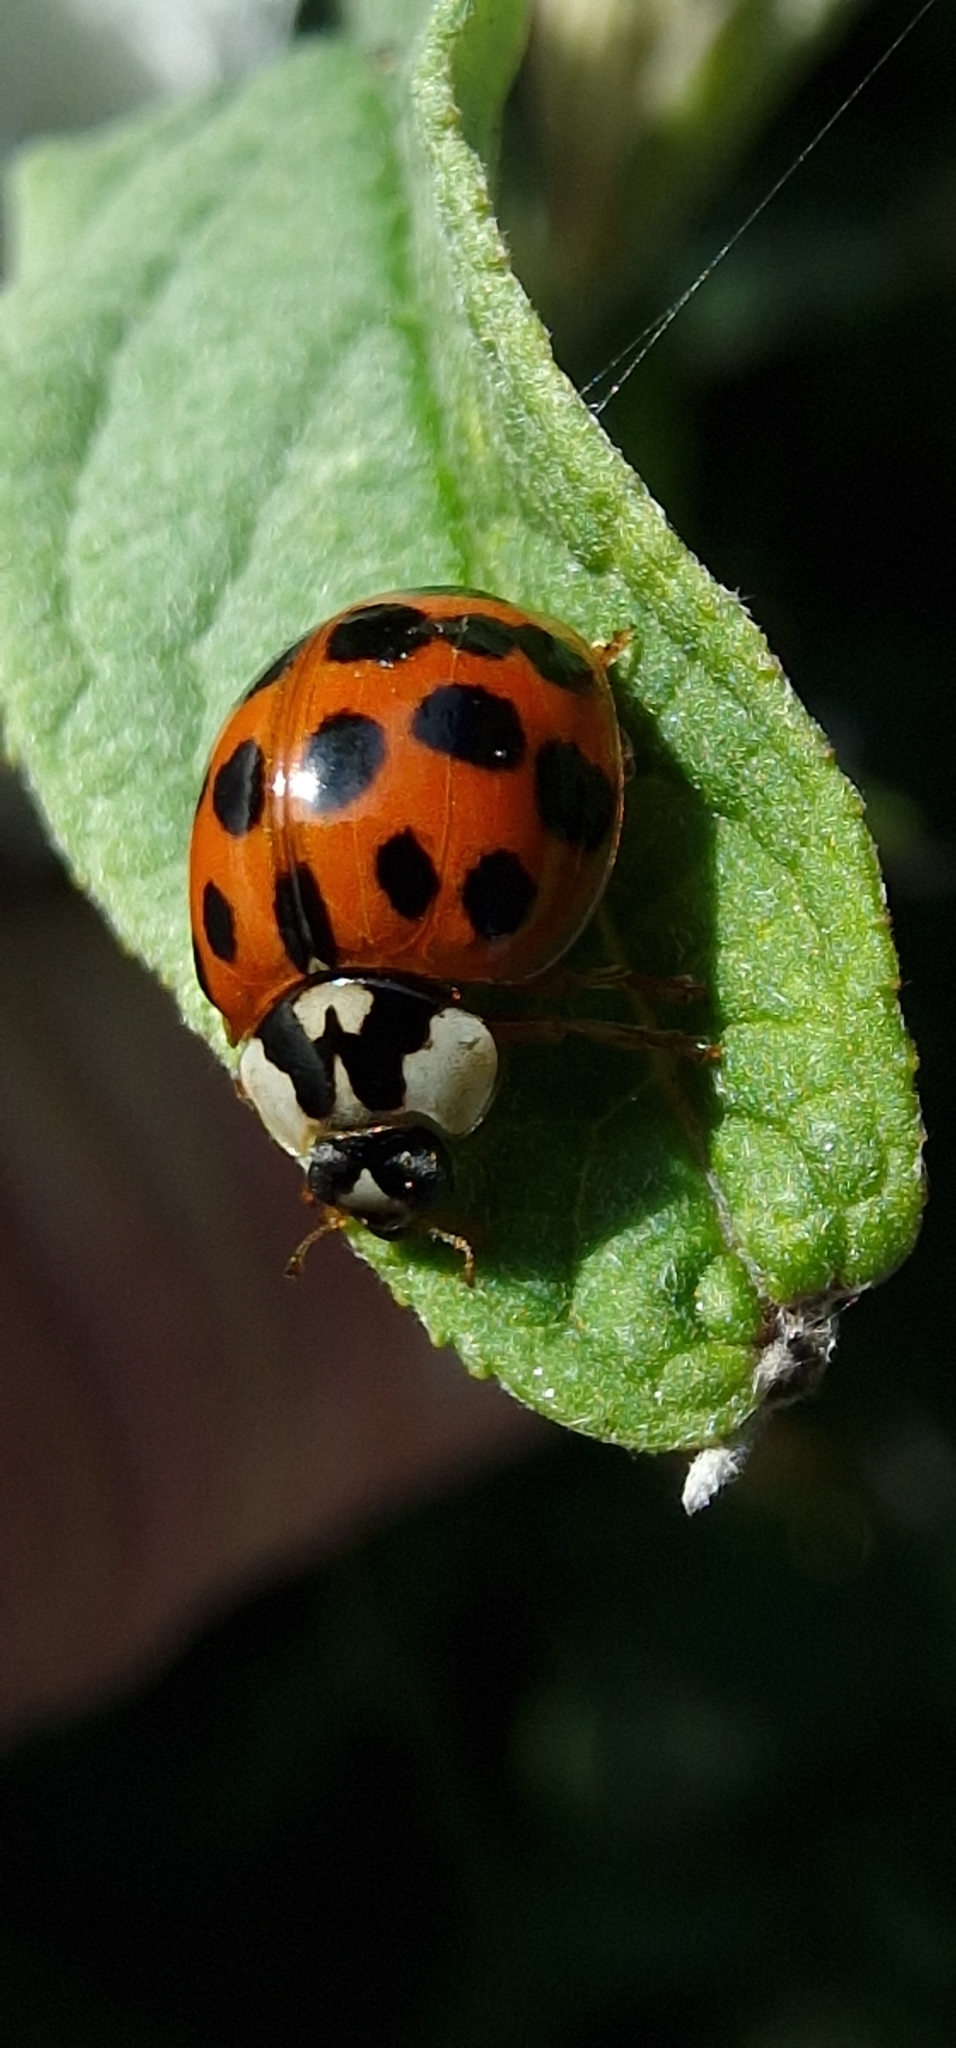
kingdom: Animalia
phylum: Arthropoda
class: Insecta
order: Coleoptera
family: Coccinellidae
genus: Harmonia
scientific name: Harmonia axyridis
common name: Harlequin ladybird
